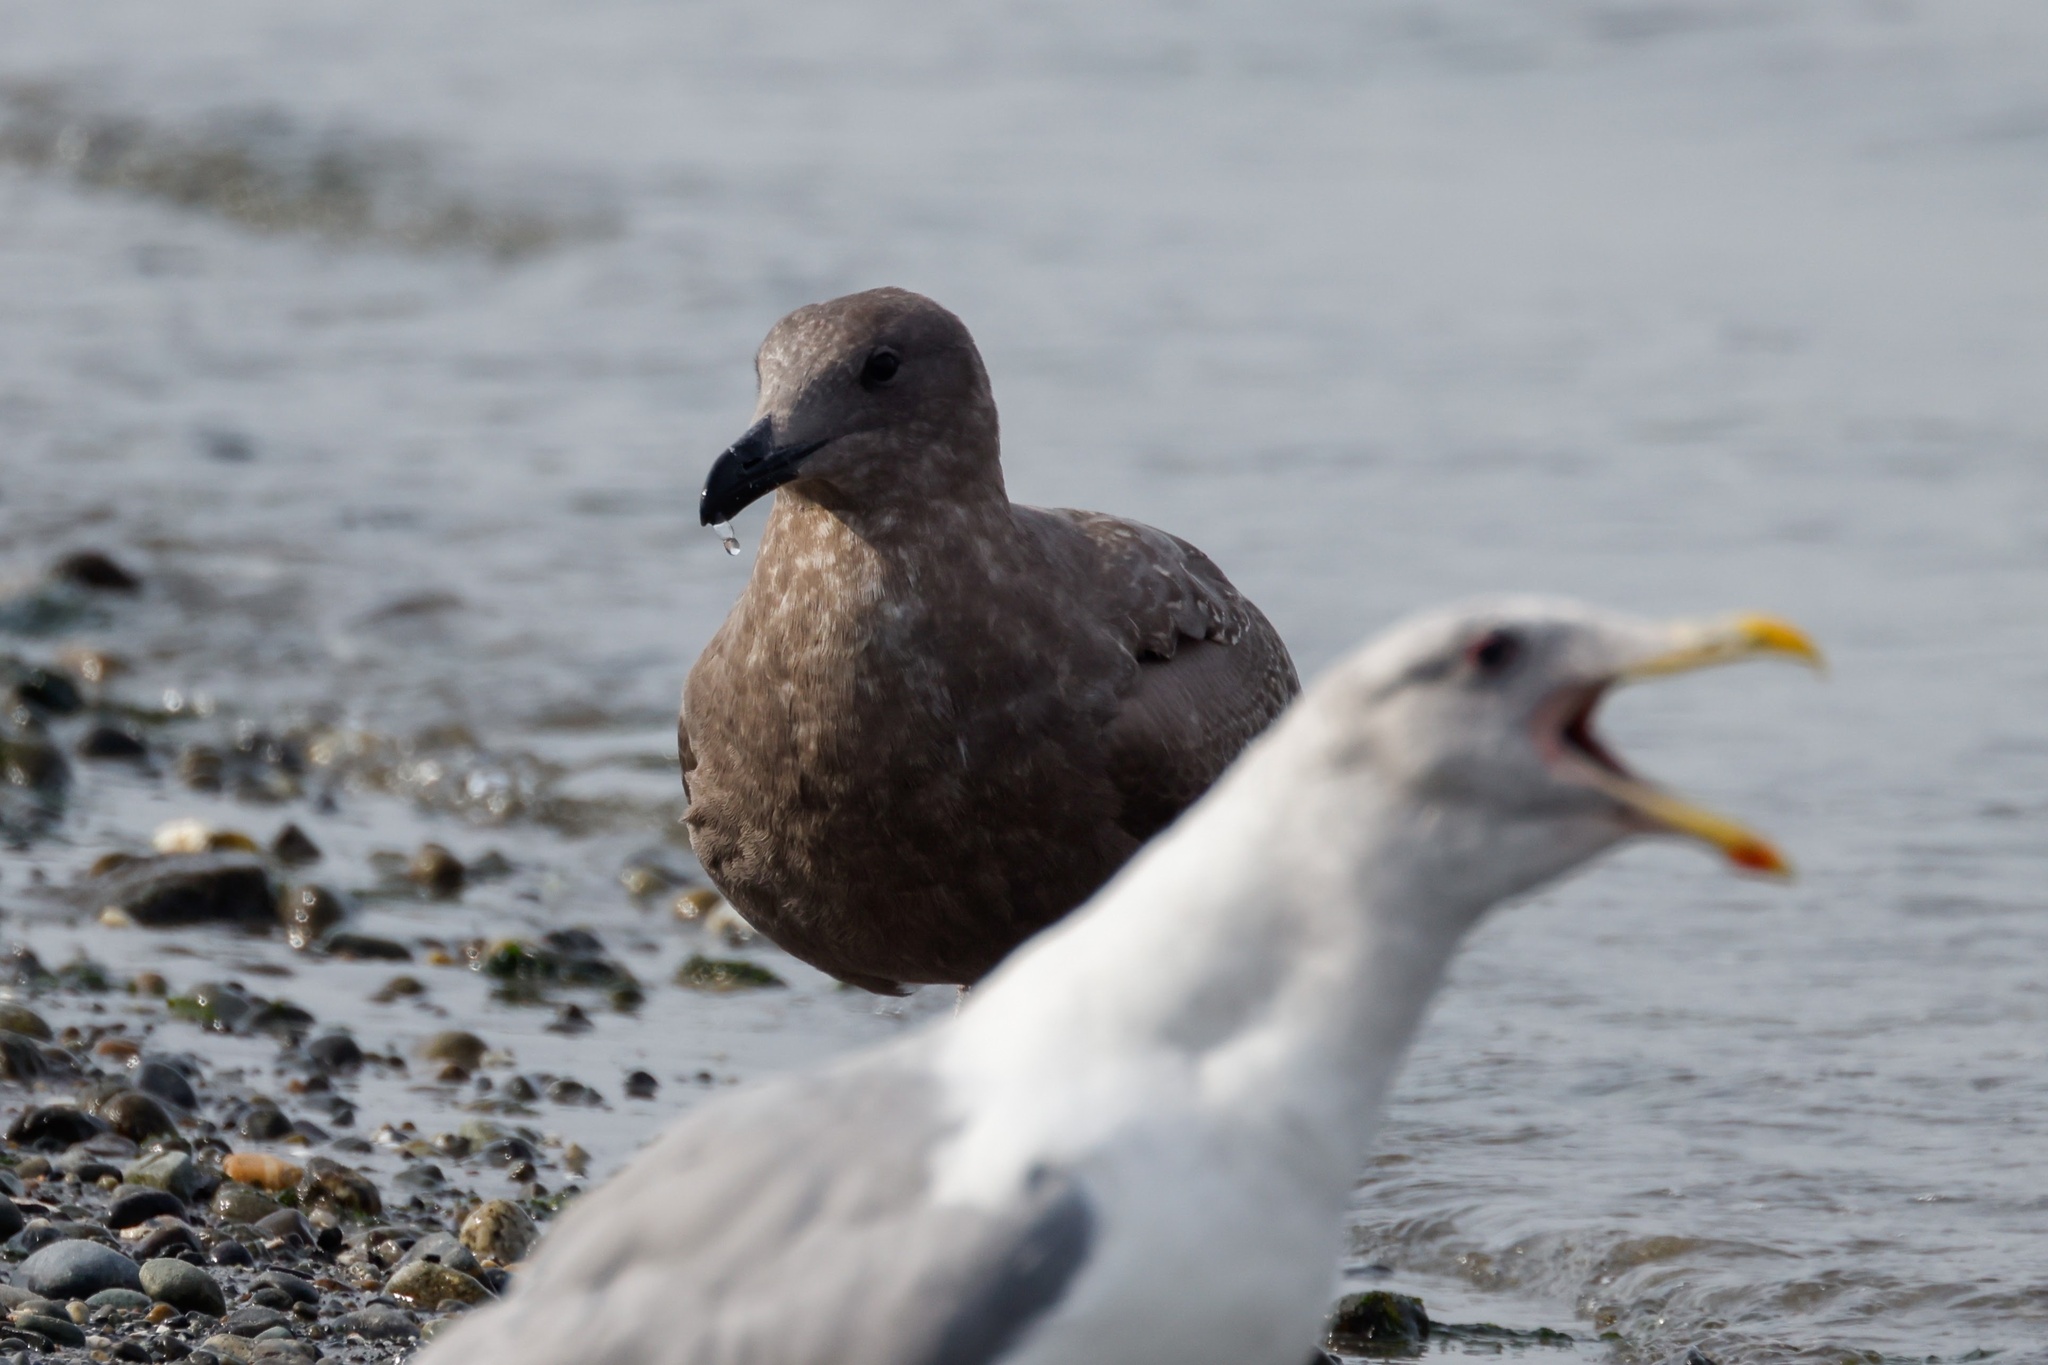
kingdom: Animalia
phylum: Chordata
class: Aves
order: Charadriiformes
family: Laridae
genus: Larus
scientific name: Larus glaucescens
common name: Glaucous-winged gull
